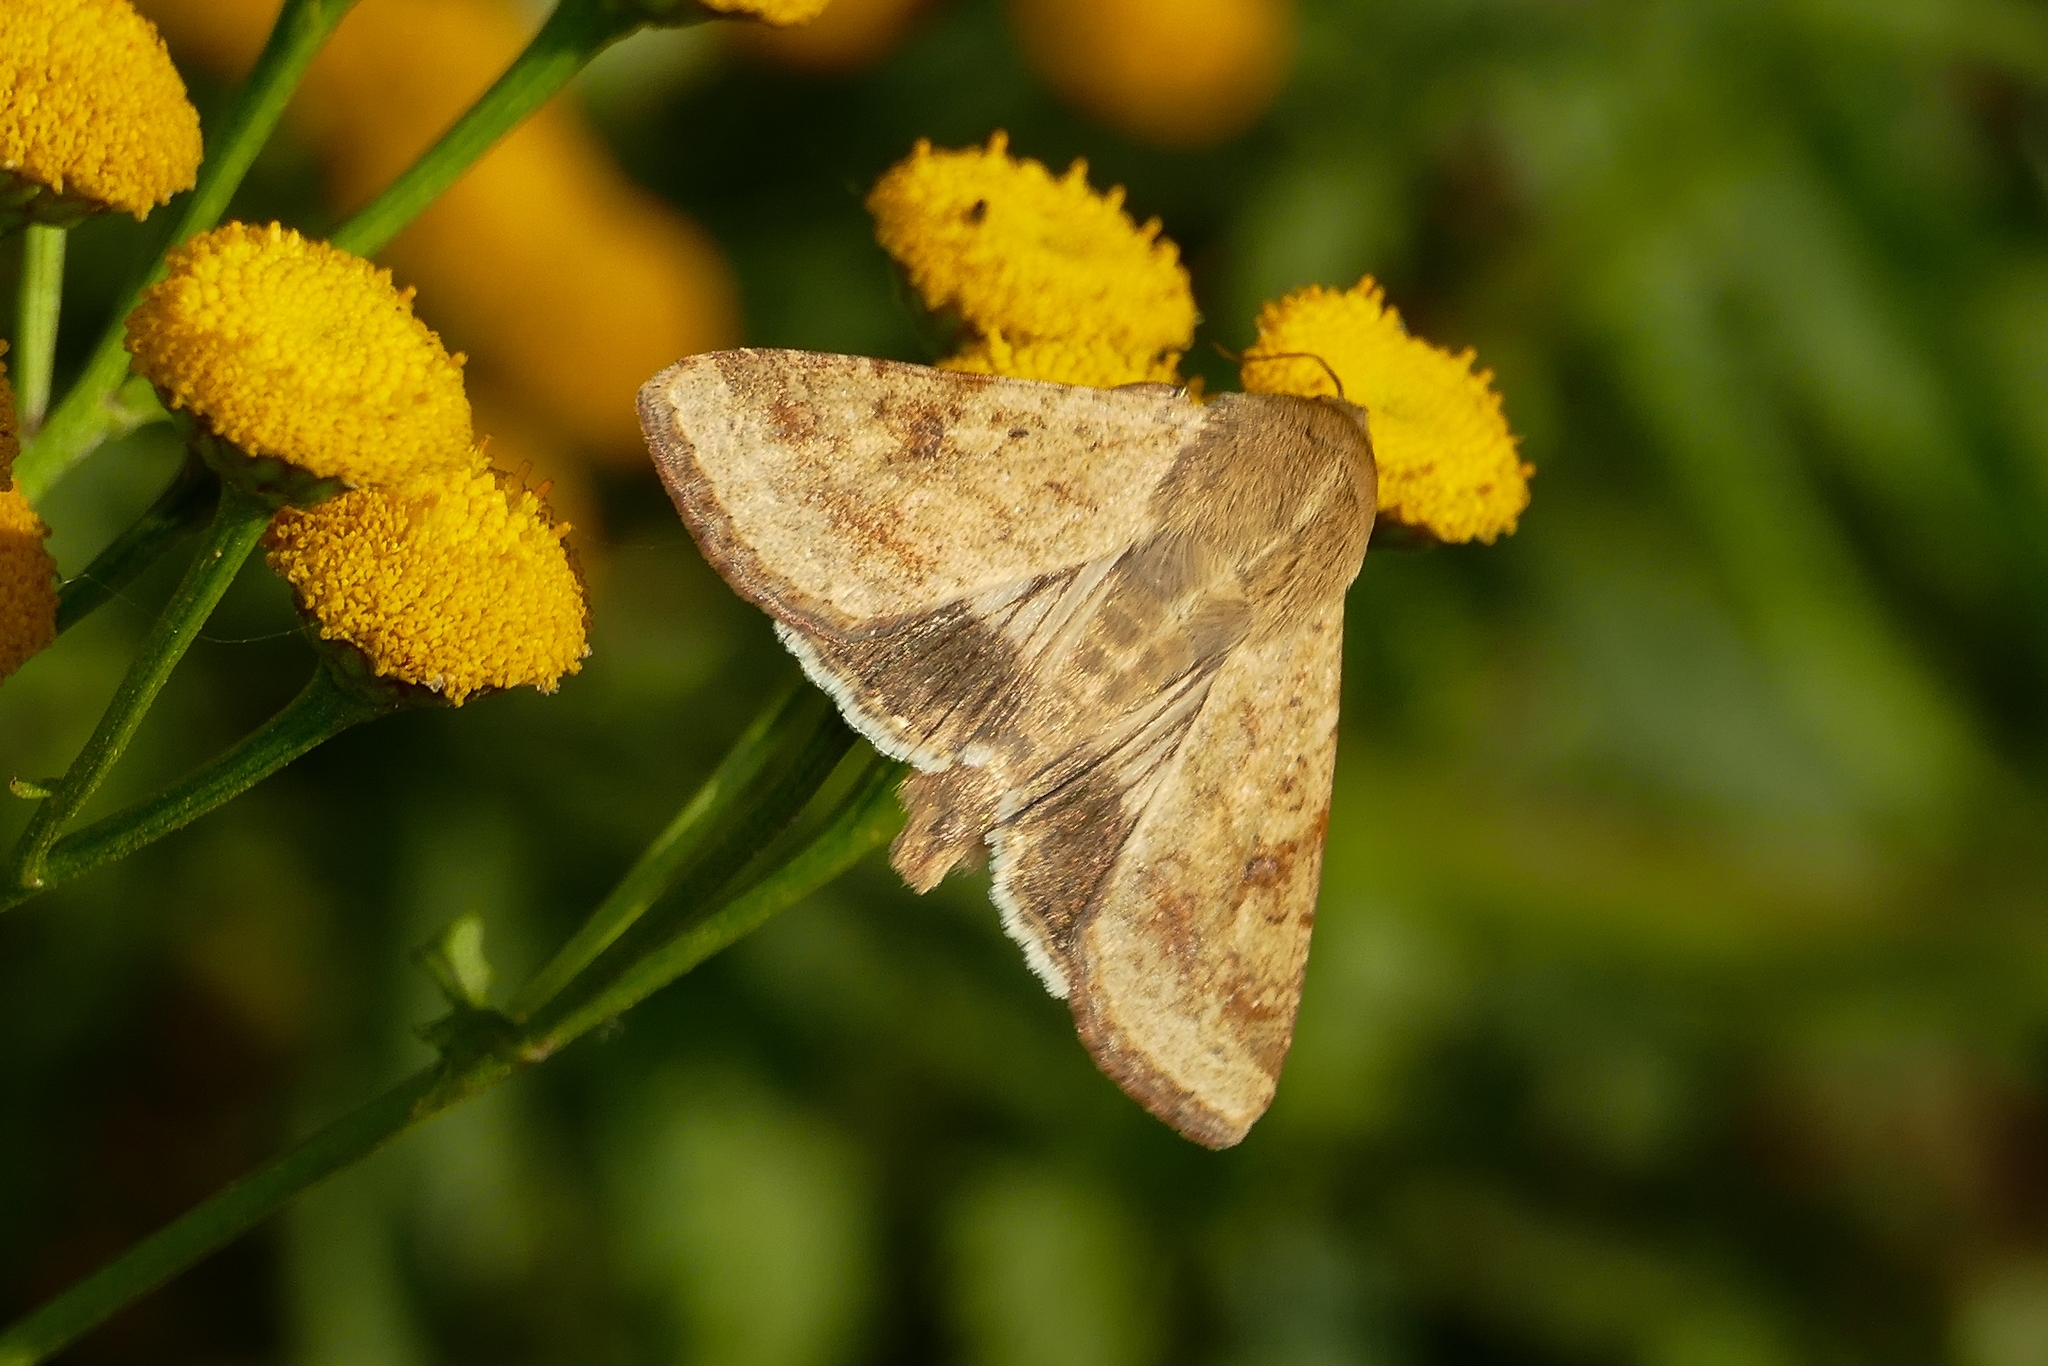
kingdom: Animalia
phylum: Arthropoda
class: Insecta
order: Lepidoptera
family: Noctuidae
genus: Helicoverpa
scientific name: Helicoverpa armigera
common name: Cotton bollworm
